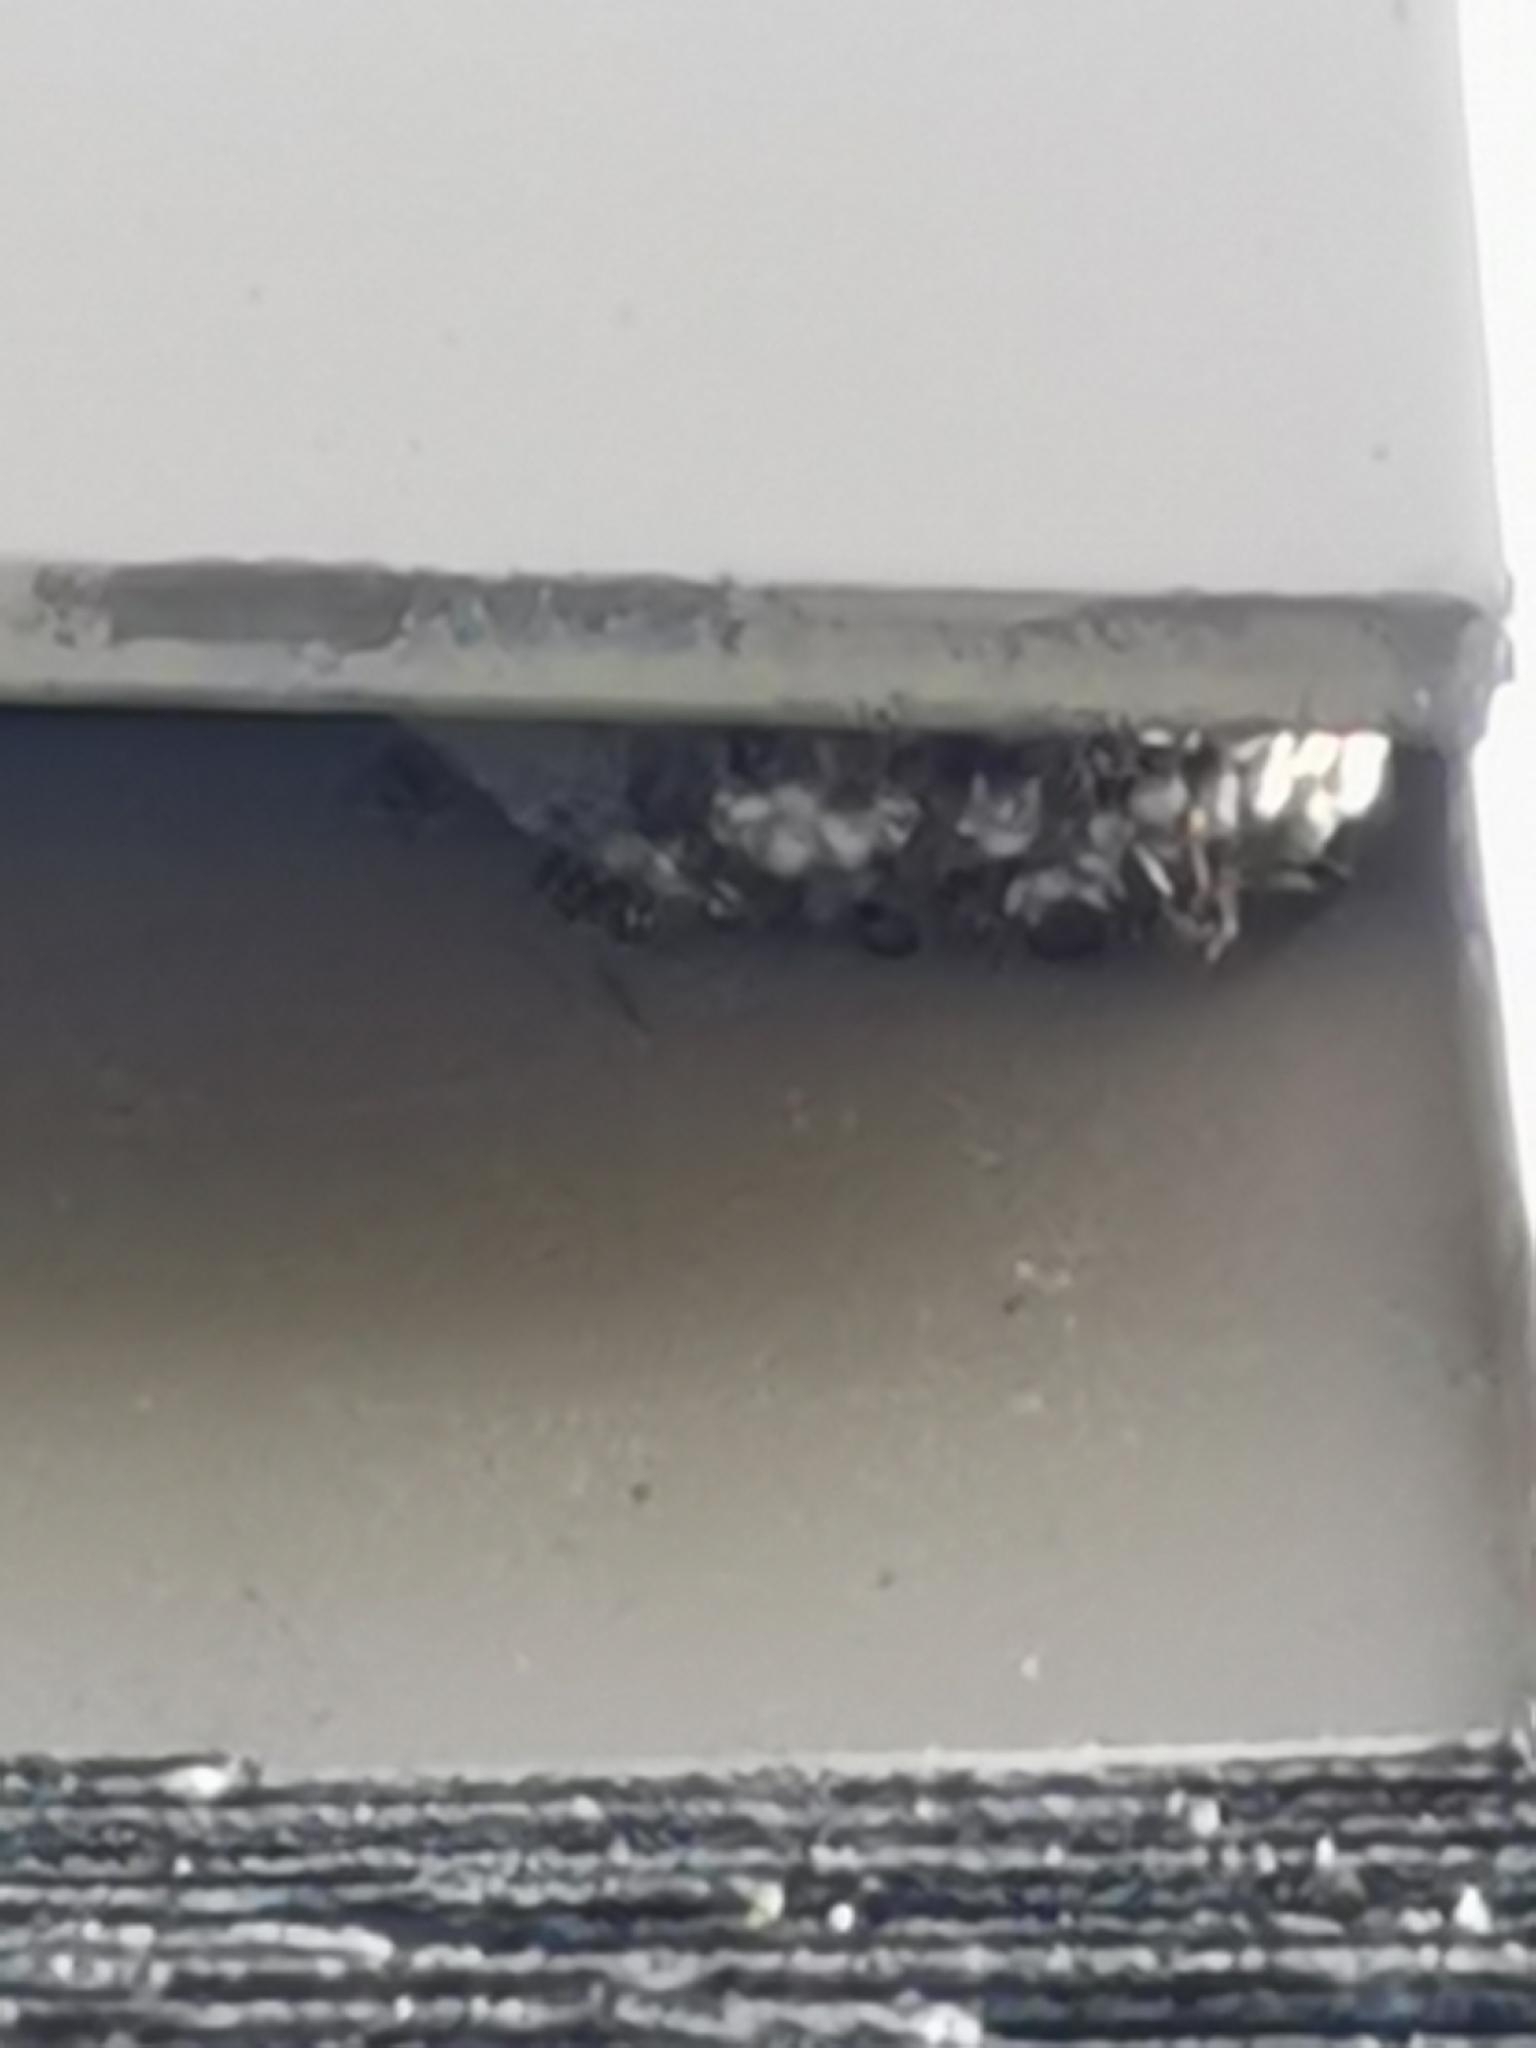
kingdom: Animalia
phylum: Arthropoda
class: Insecta
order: Hymenoptera
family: Eumenidae
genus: Polistes
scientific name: Polistes
